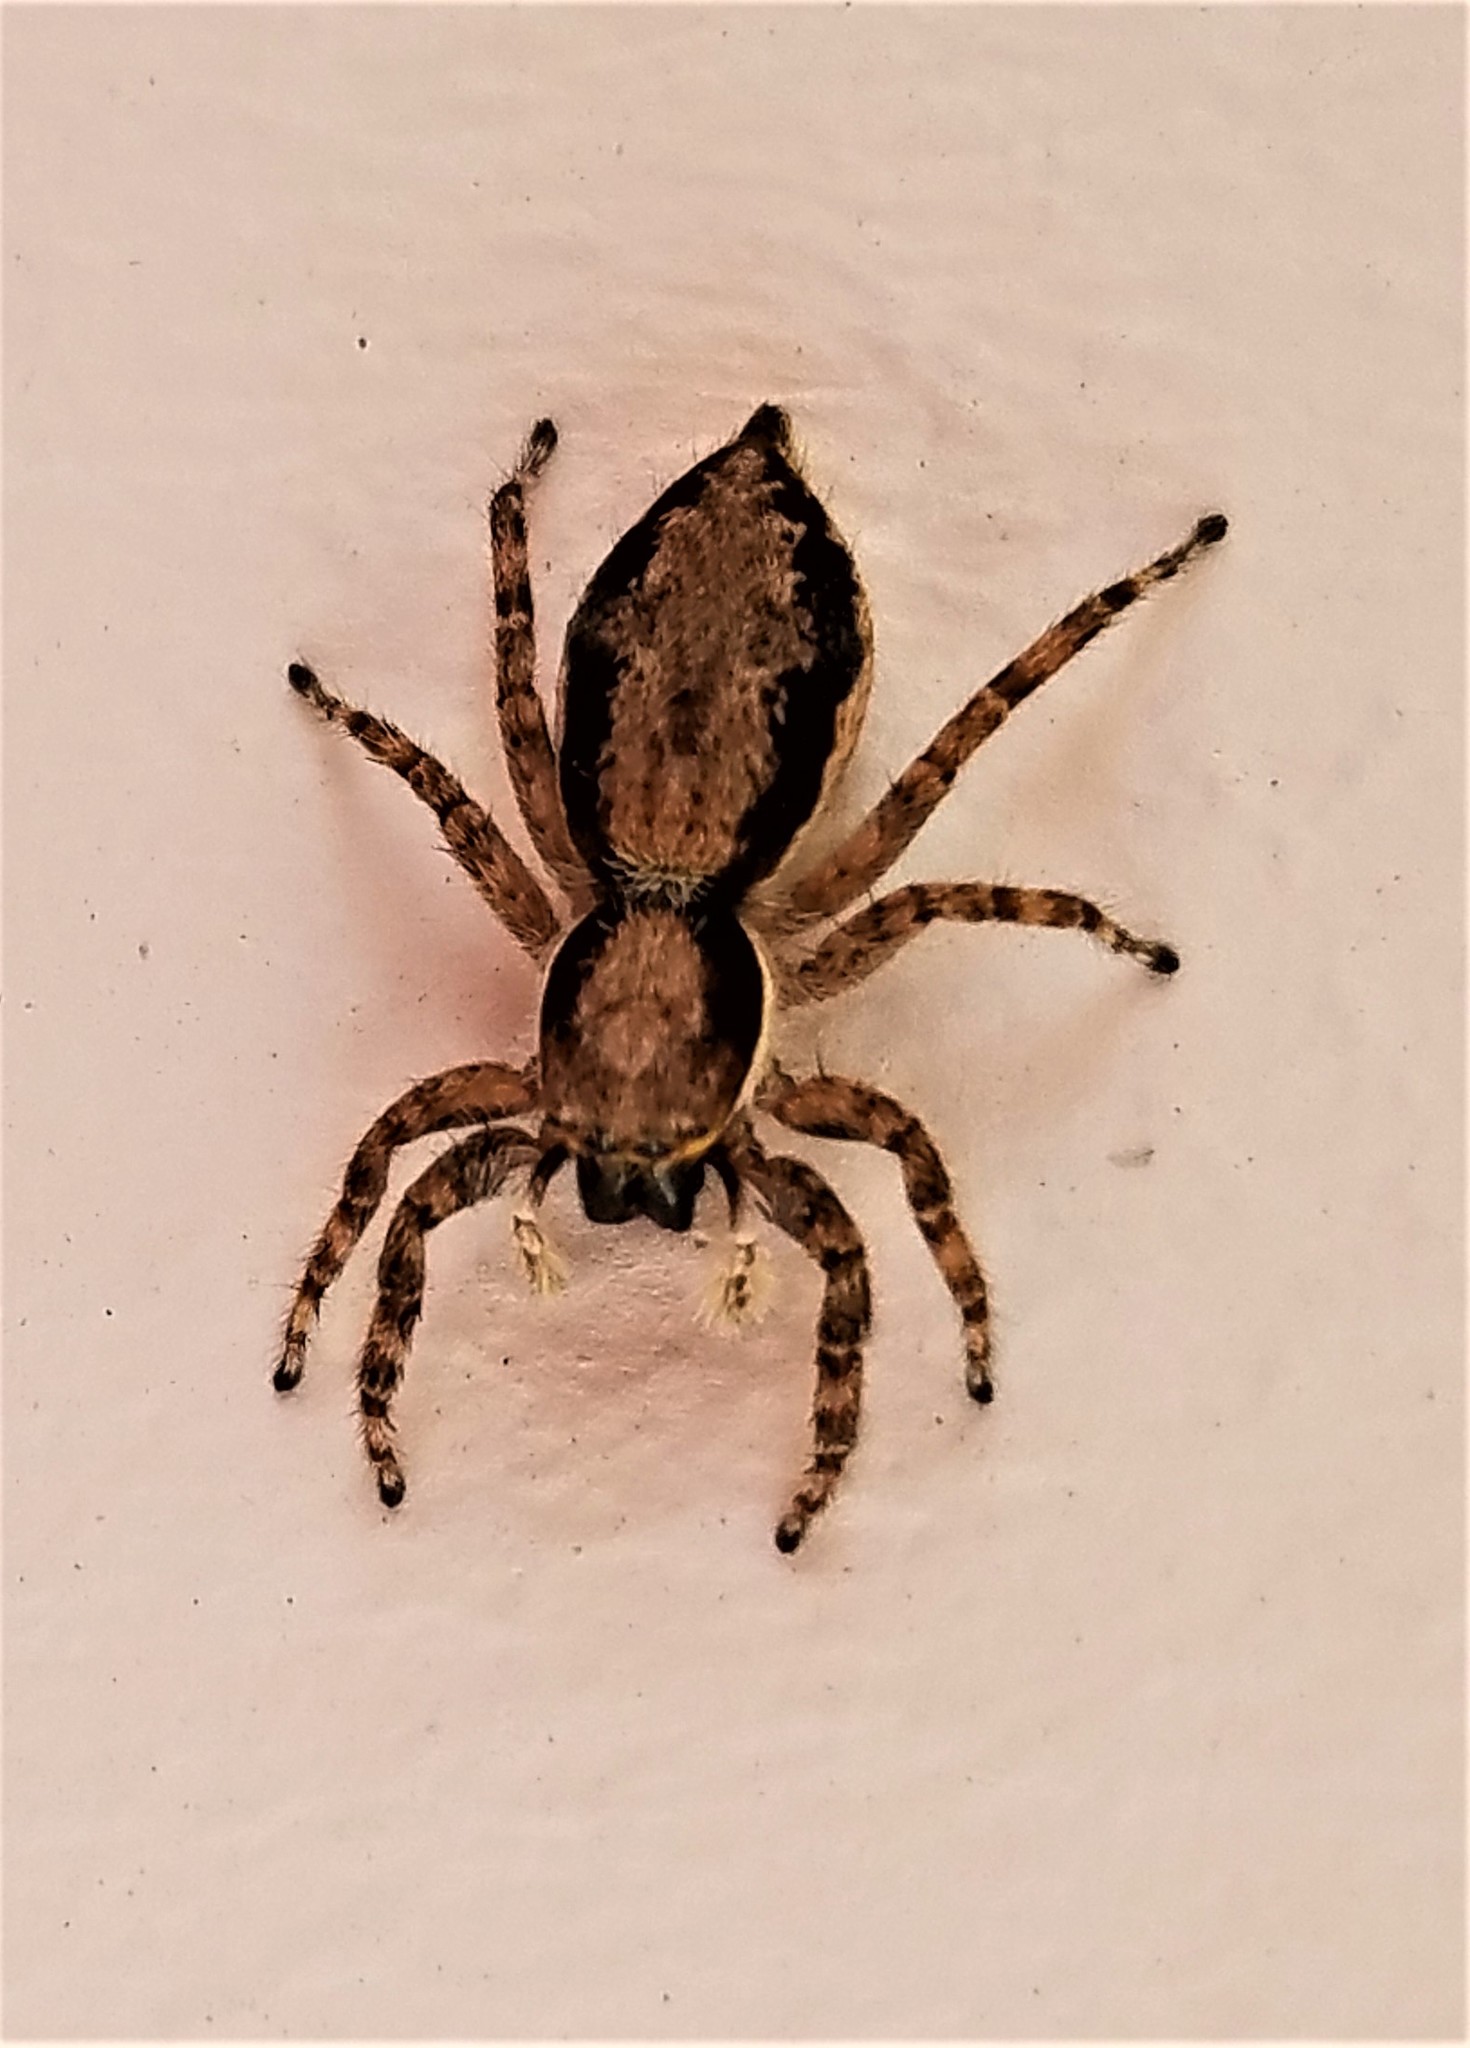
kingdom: Animalia
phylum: Arthropoda
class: Arachnida
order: Araneae
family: Salticidae
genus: Menemerus
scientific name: Menemerus bivittatus
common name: Gray wall jumper
